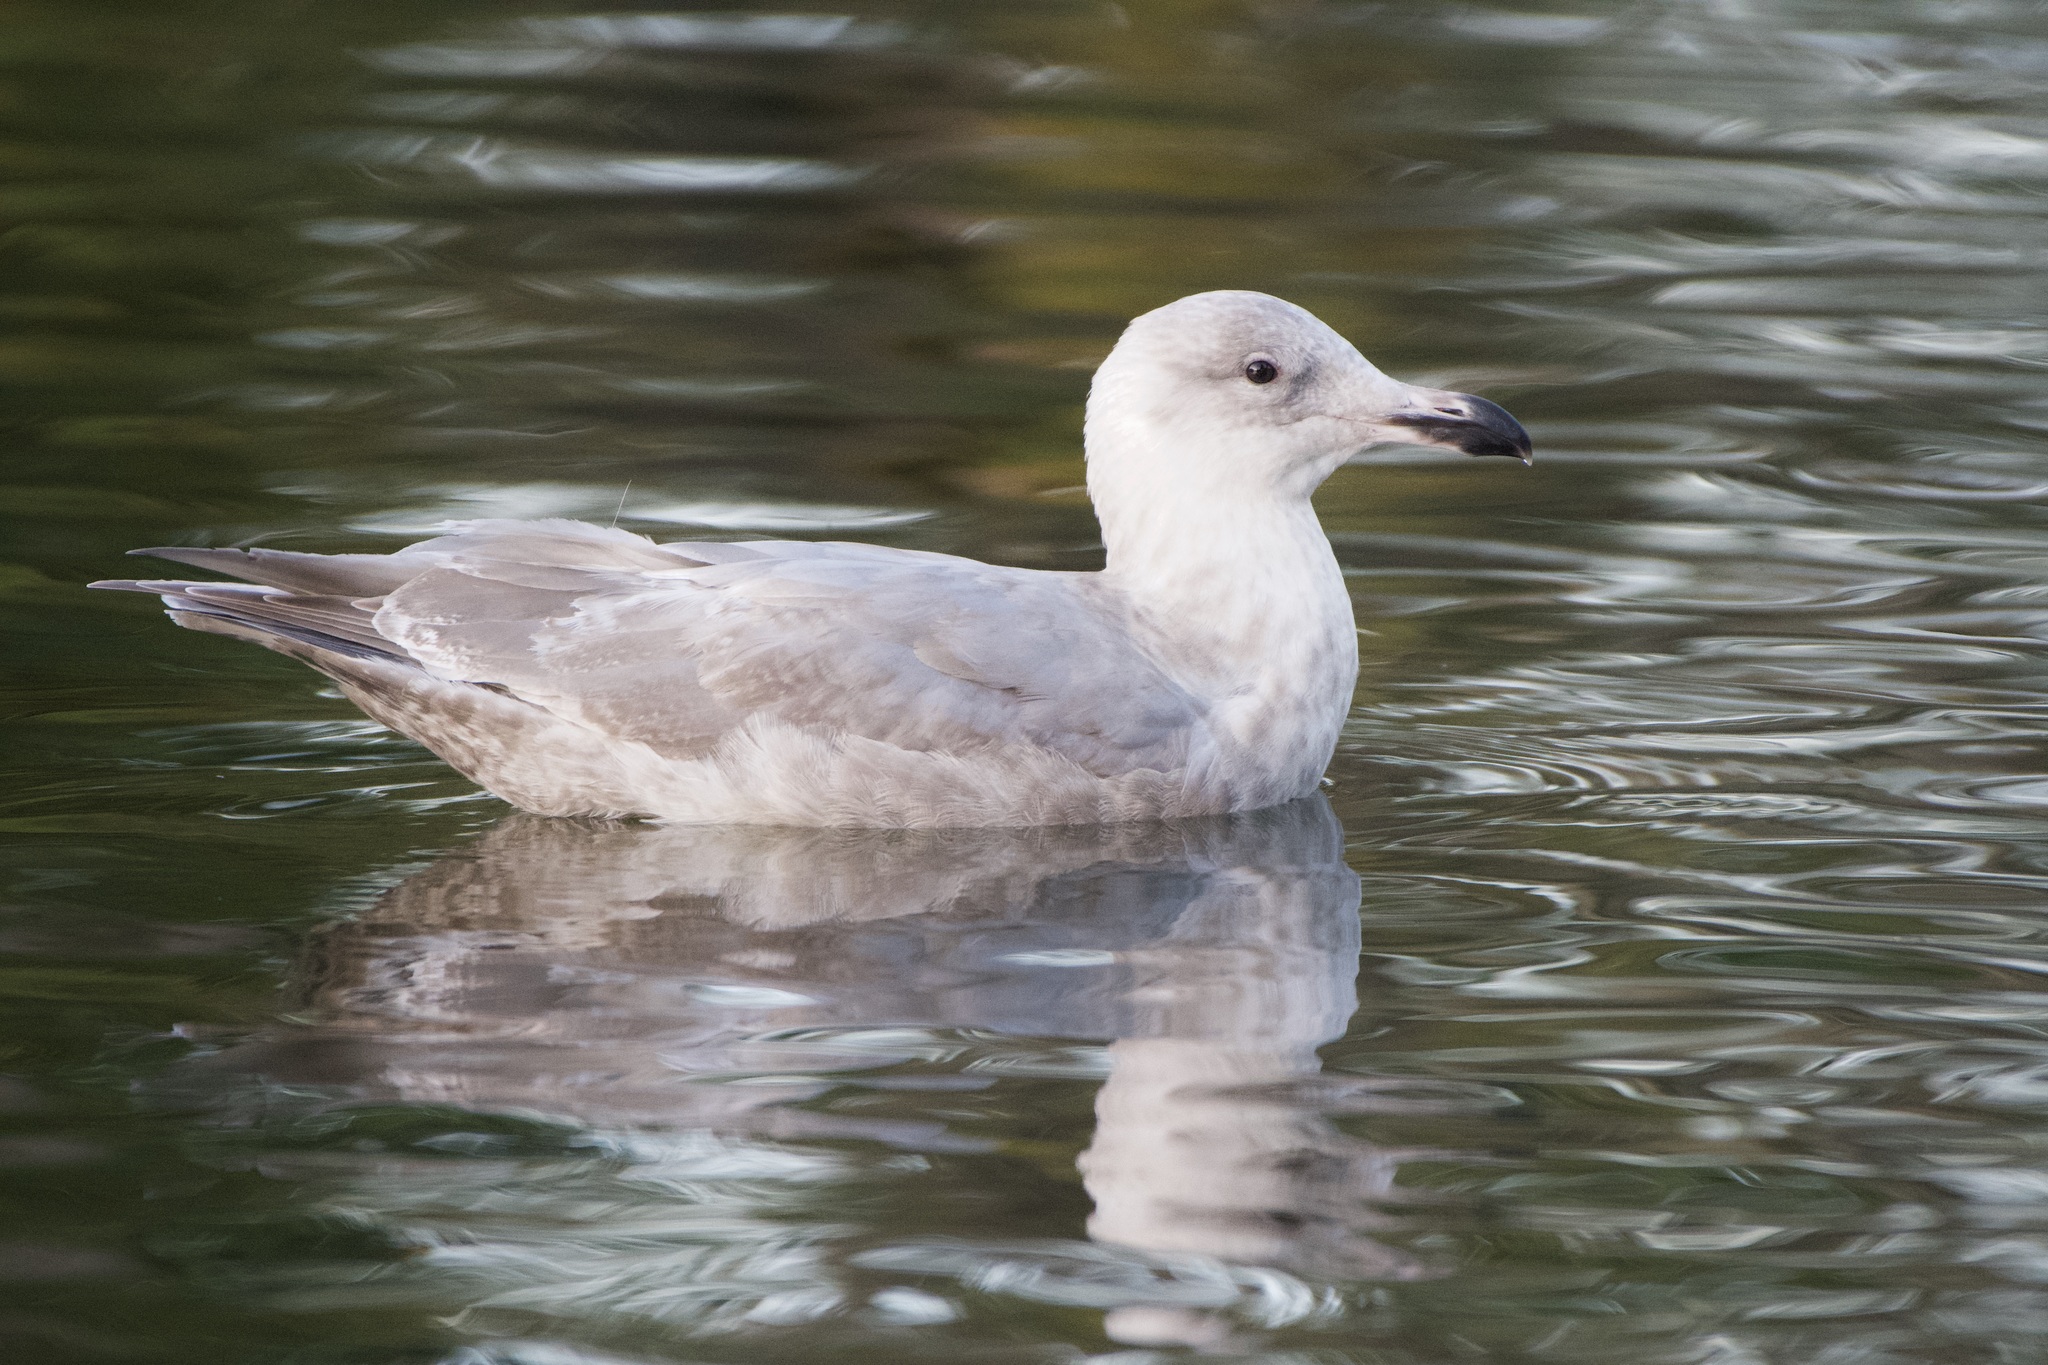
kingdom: Animalia
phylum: Chordata
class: Aves
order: Charadriiformes
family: Laridae
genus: Larus
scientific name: Larus
